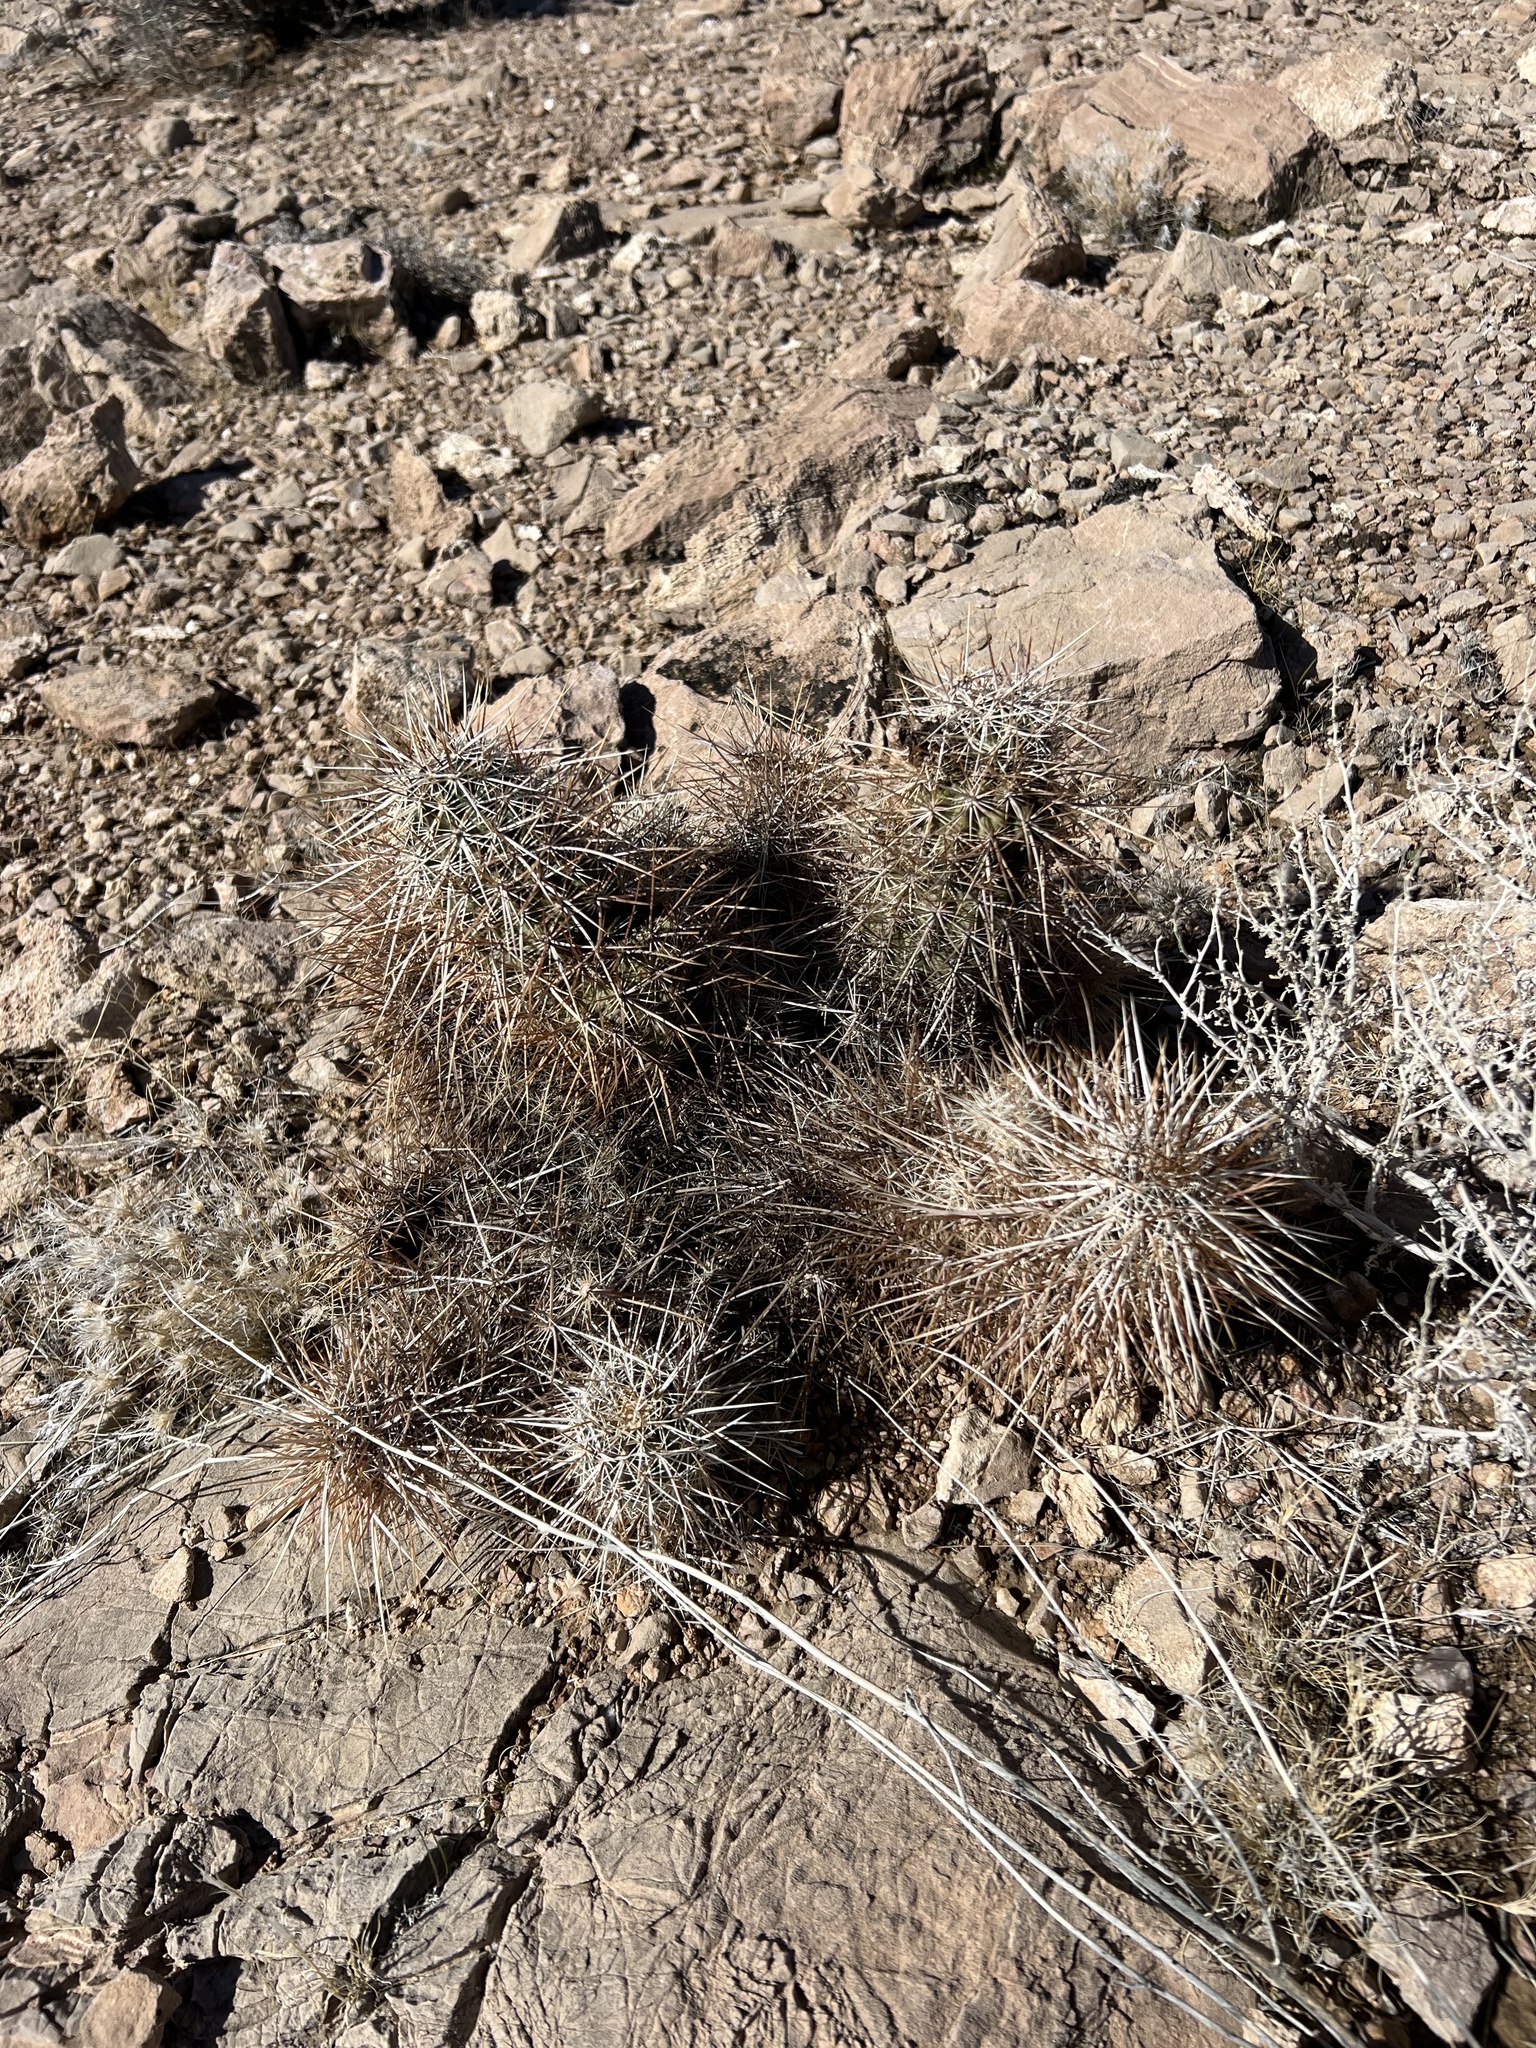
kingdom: Plantae
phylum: Tracheophyta
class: Magnoliopsida
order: Caryophyllales
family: Cactaceae
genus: Echinocereus
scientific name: Echinocereus engelmannii
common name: Engelmann's hedgehog cactus
